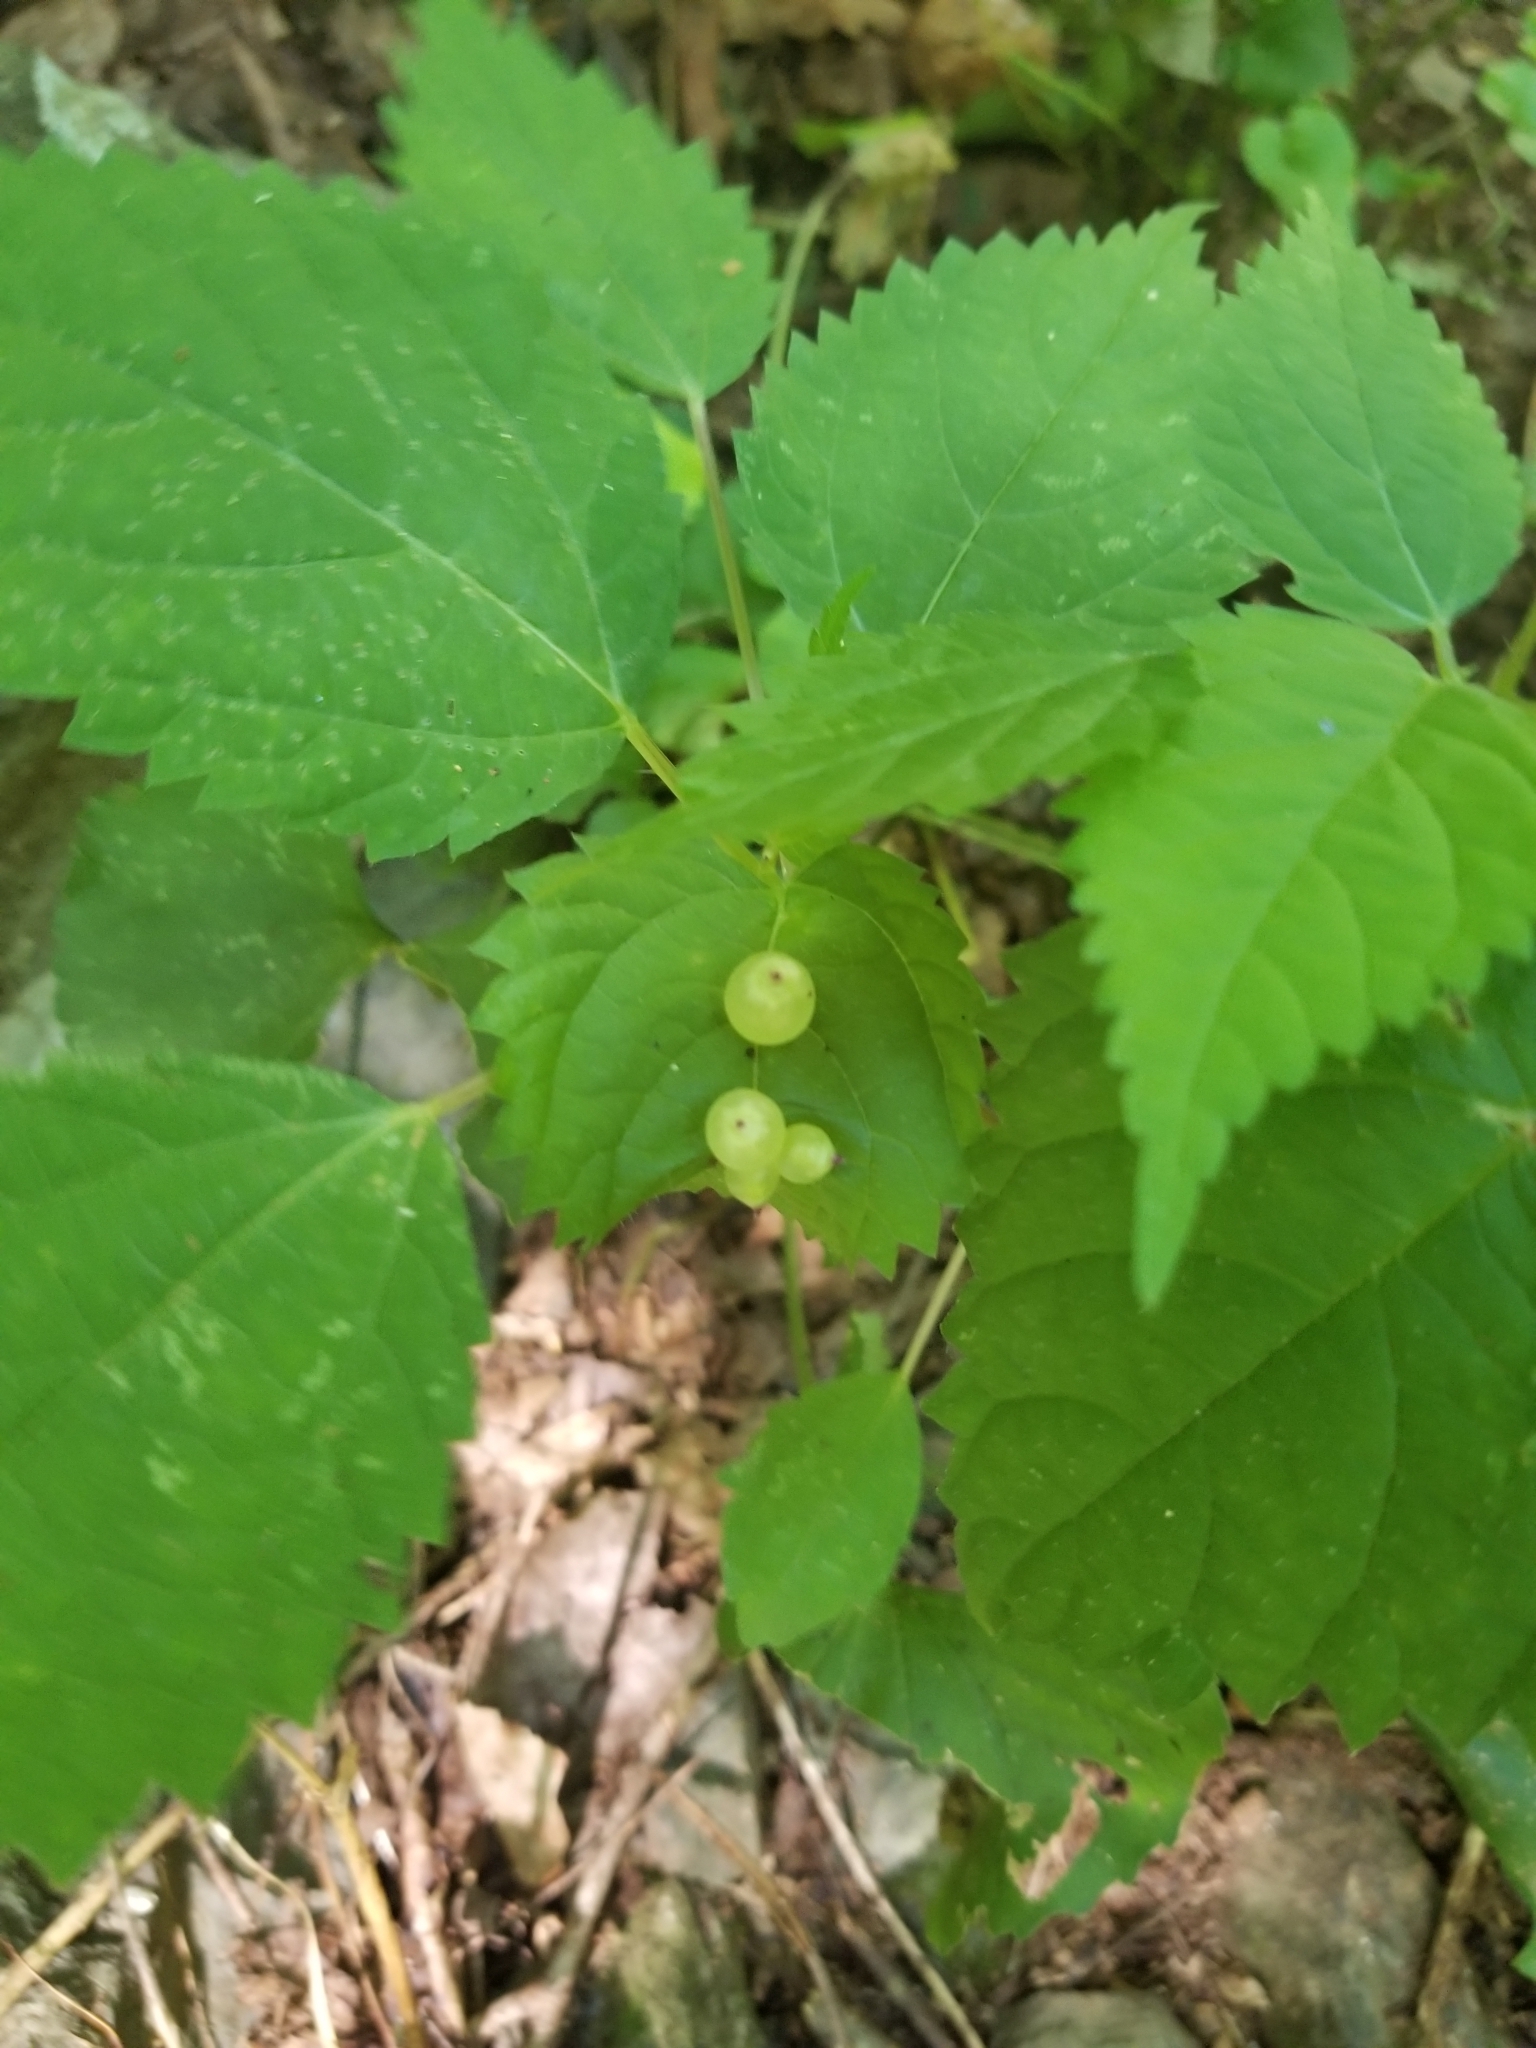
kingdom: Animalia
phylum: Arthropoda
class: Insecta
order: Diptera
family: Cecidomyiidae
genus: Dasineura
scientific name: Dasineura investita
